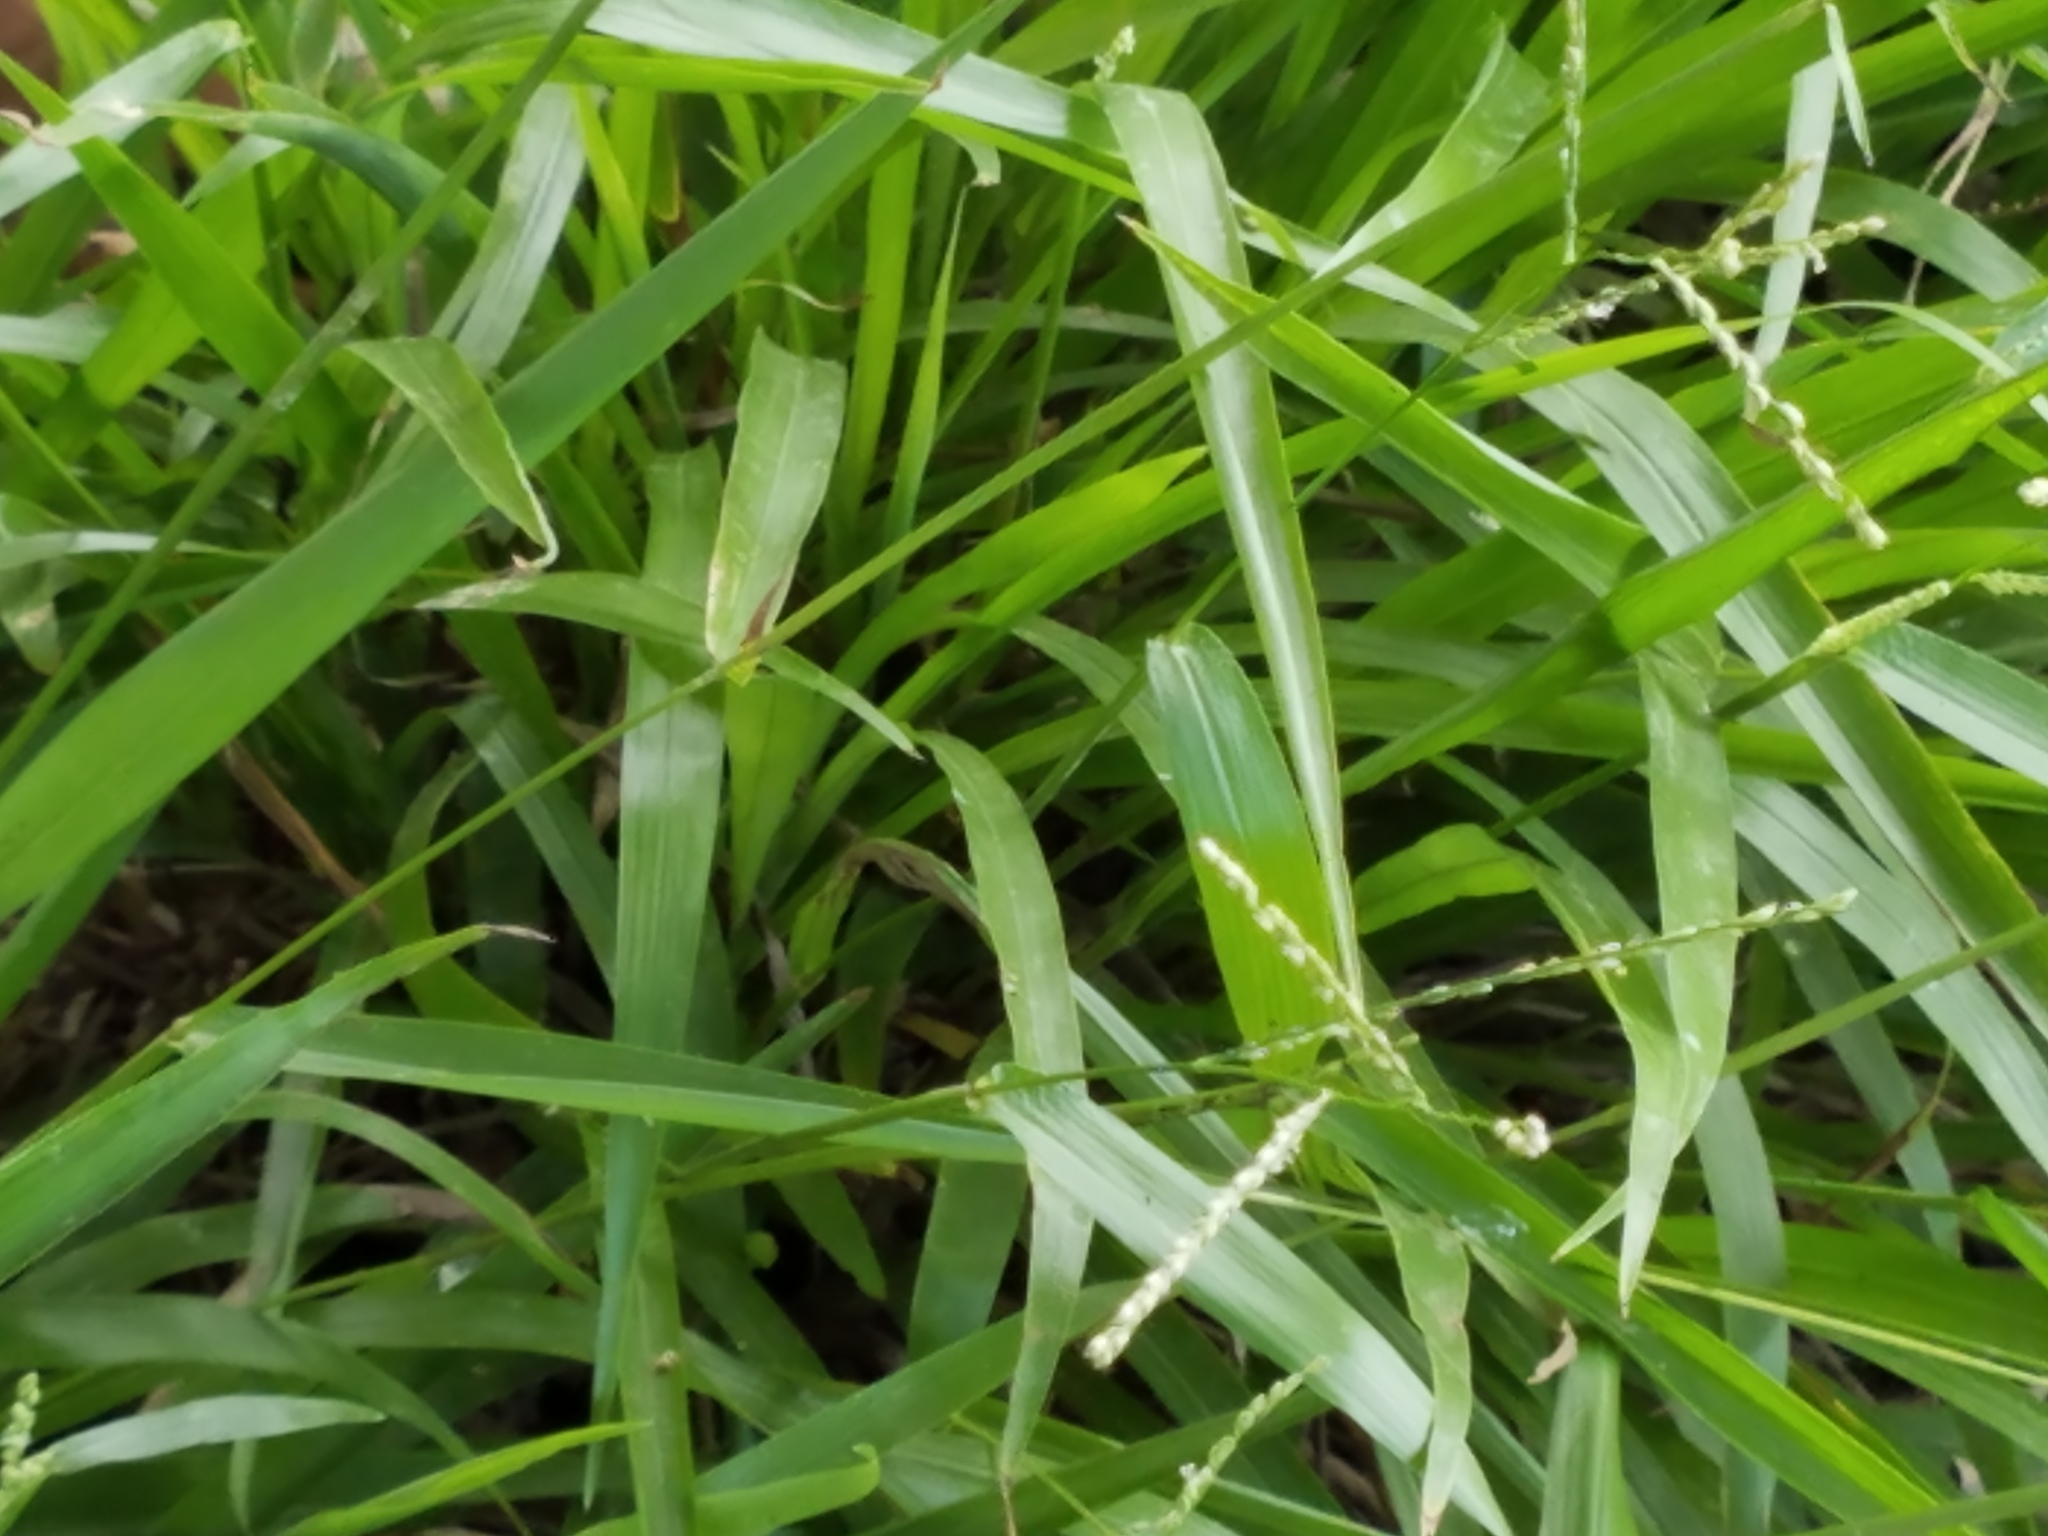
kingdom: Plantae
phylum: Tracheophyta
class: Liliopsida
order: Poales
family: Poaceae
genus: Paspalum
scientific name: Paspalum langei
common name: Rusty-seed paspalum
